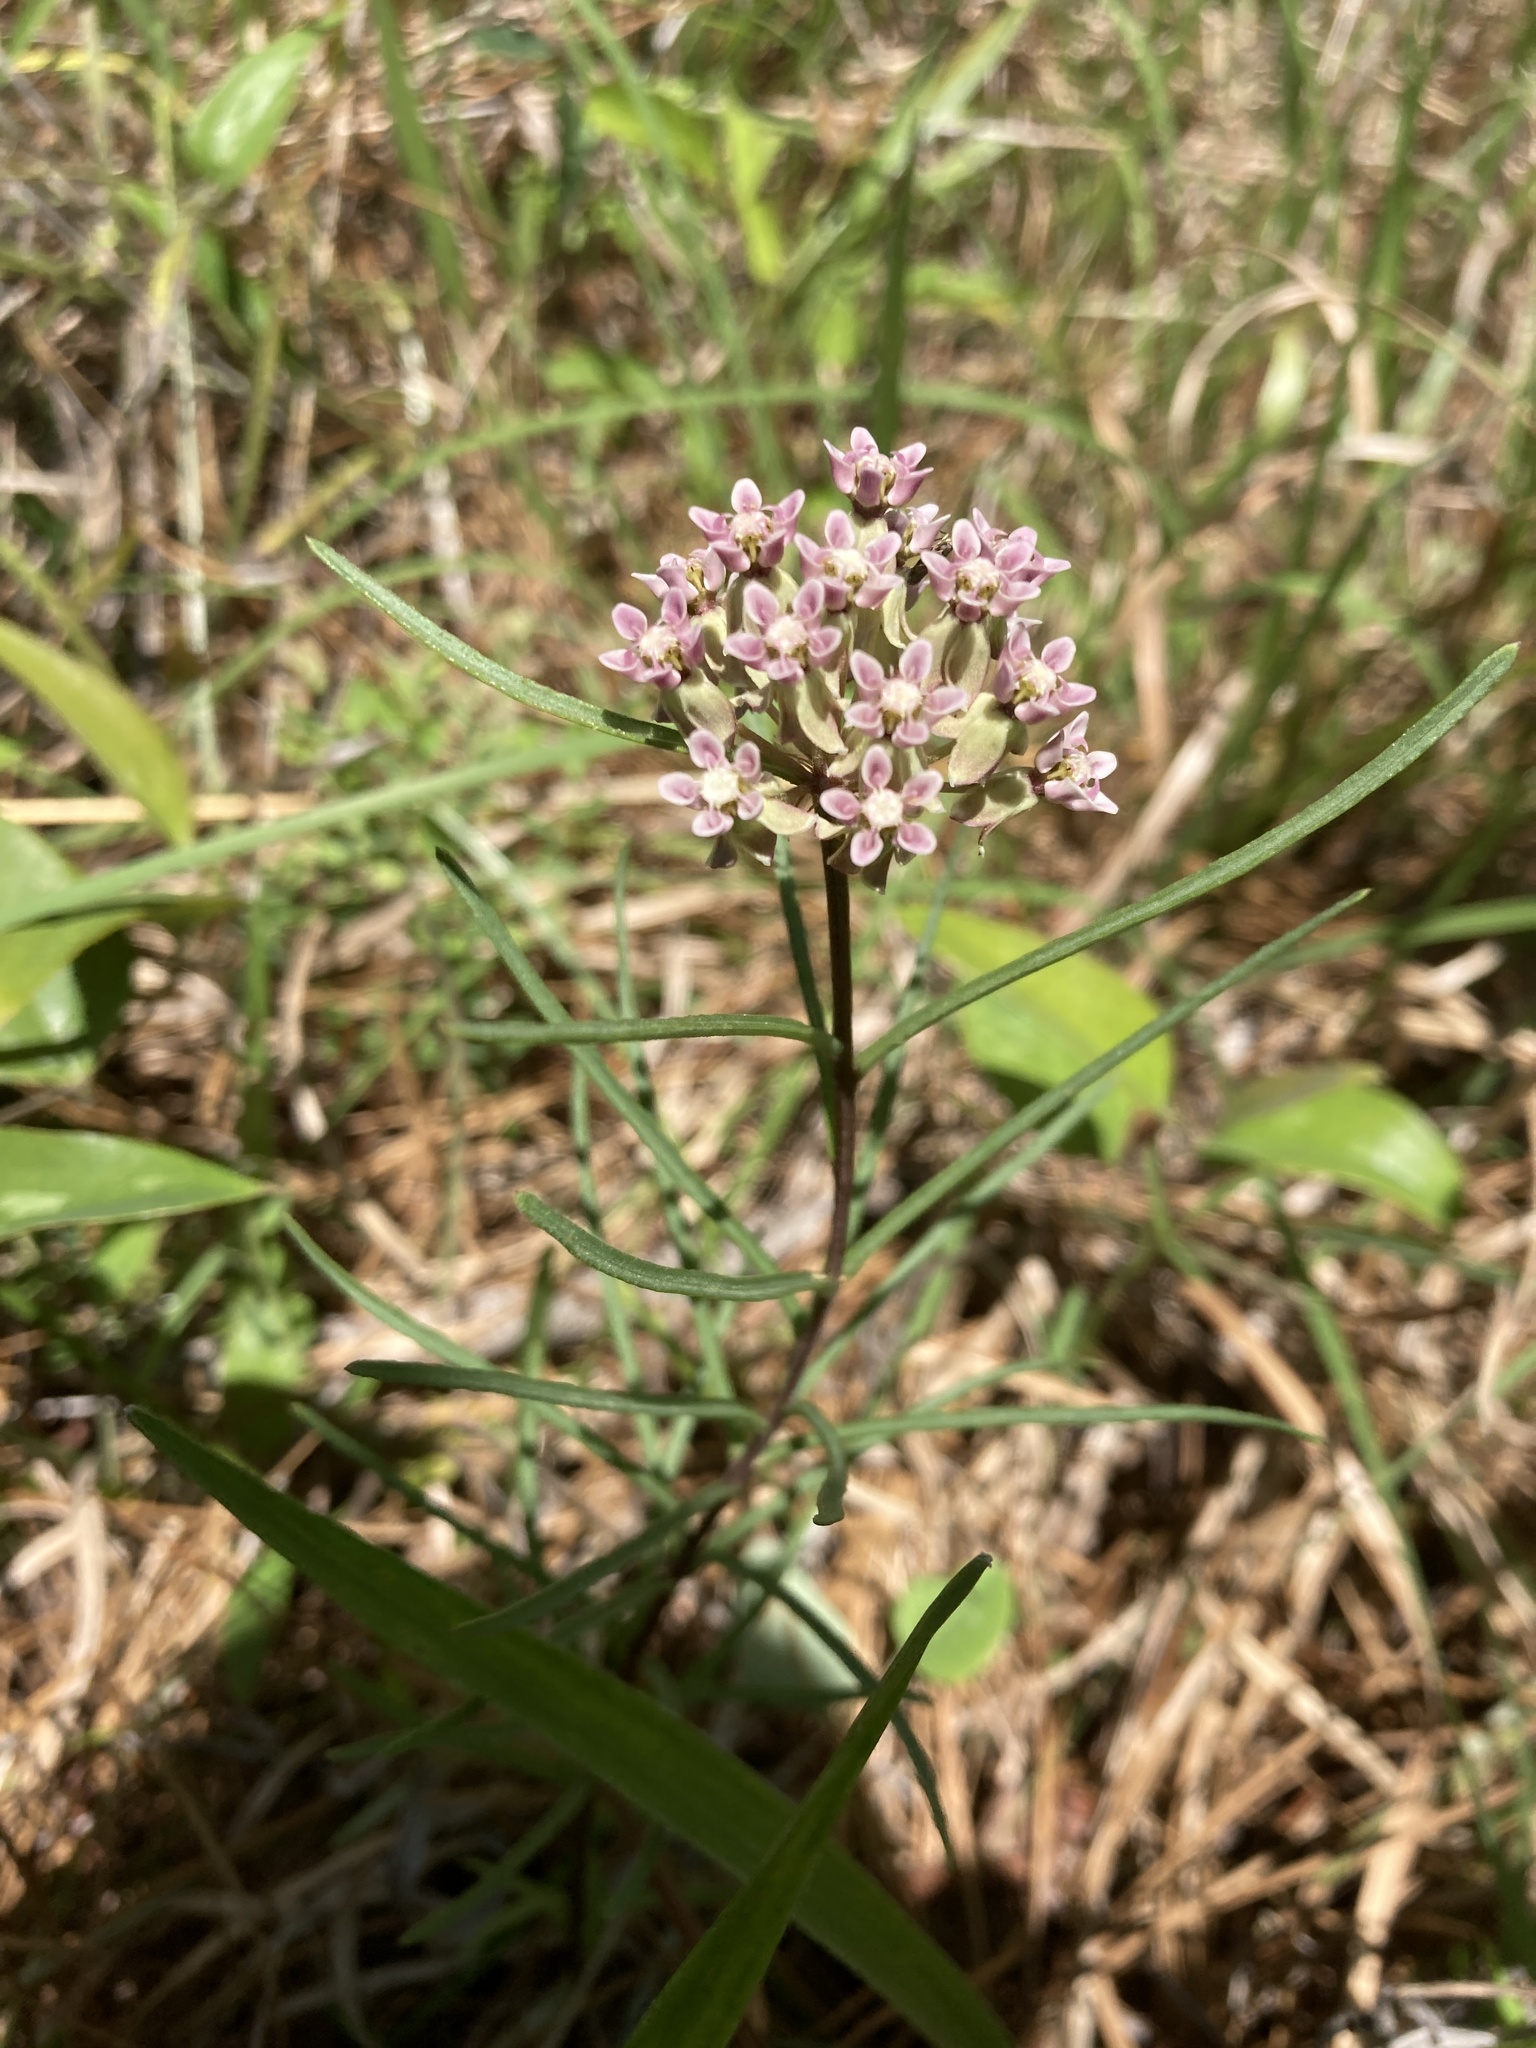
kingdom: Plantae
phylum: Tracheophyta
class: Magnoliopsida
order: Gentianales
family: Apocynaceae
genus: Asclepias
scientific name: Asclepias michauxii
